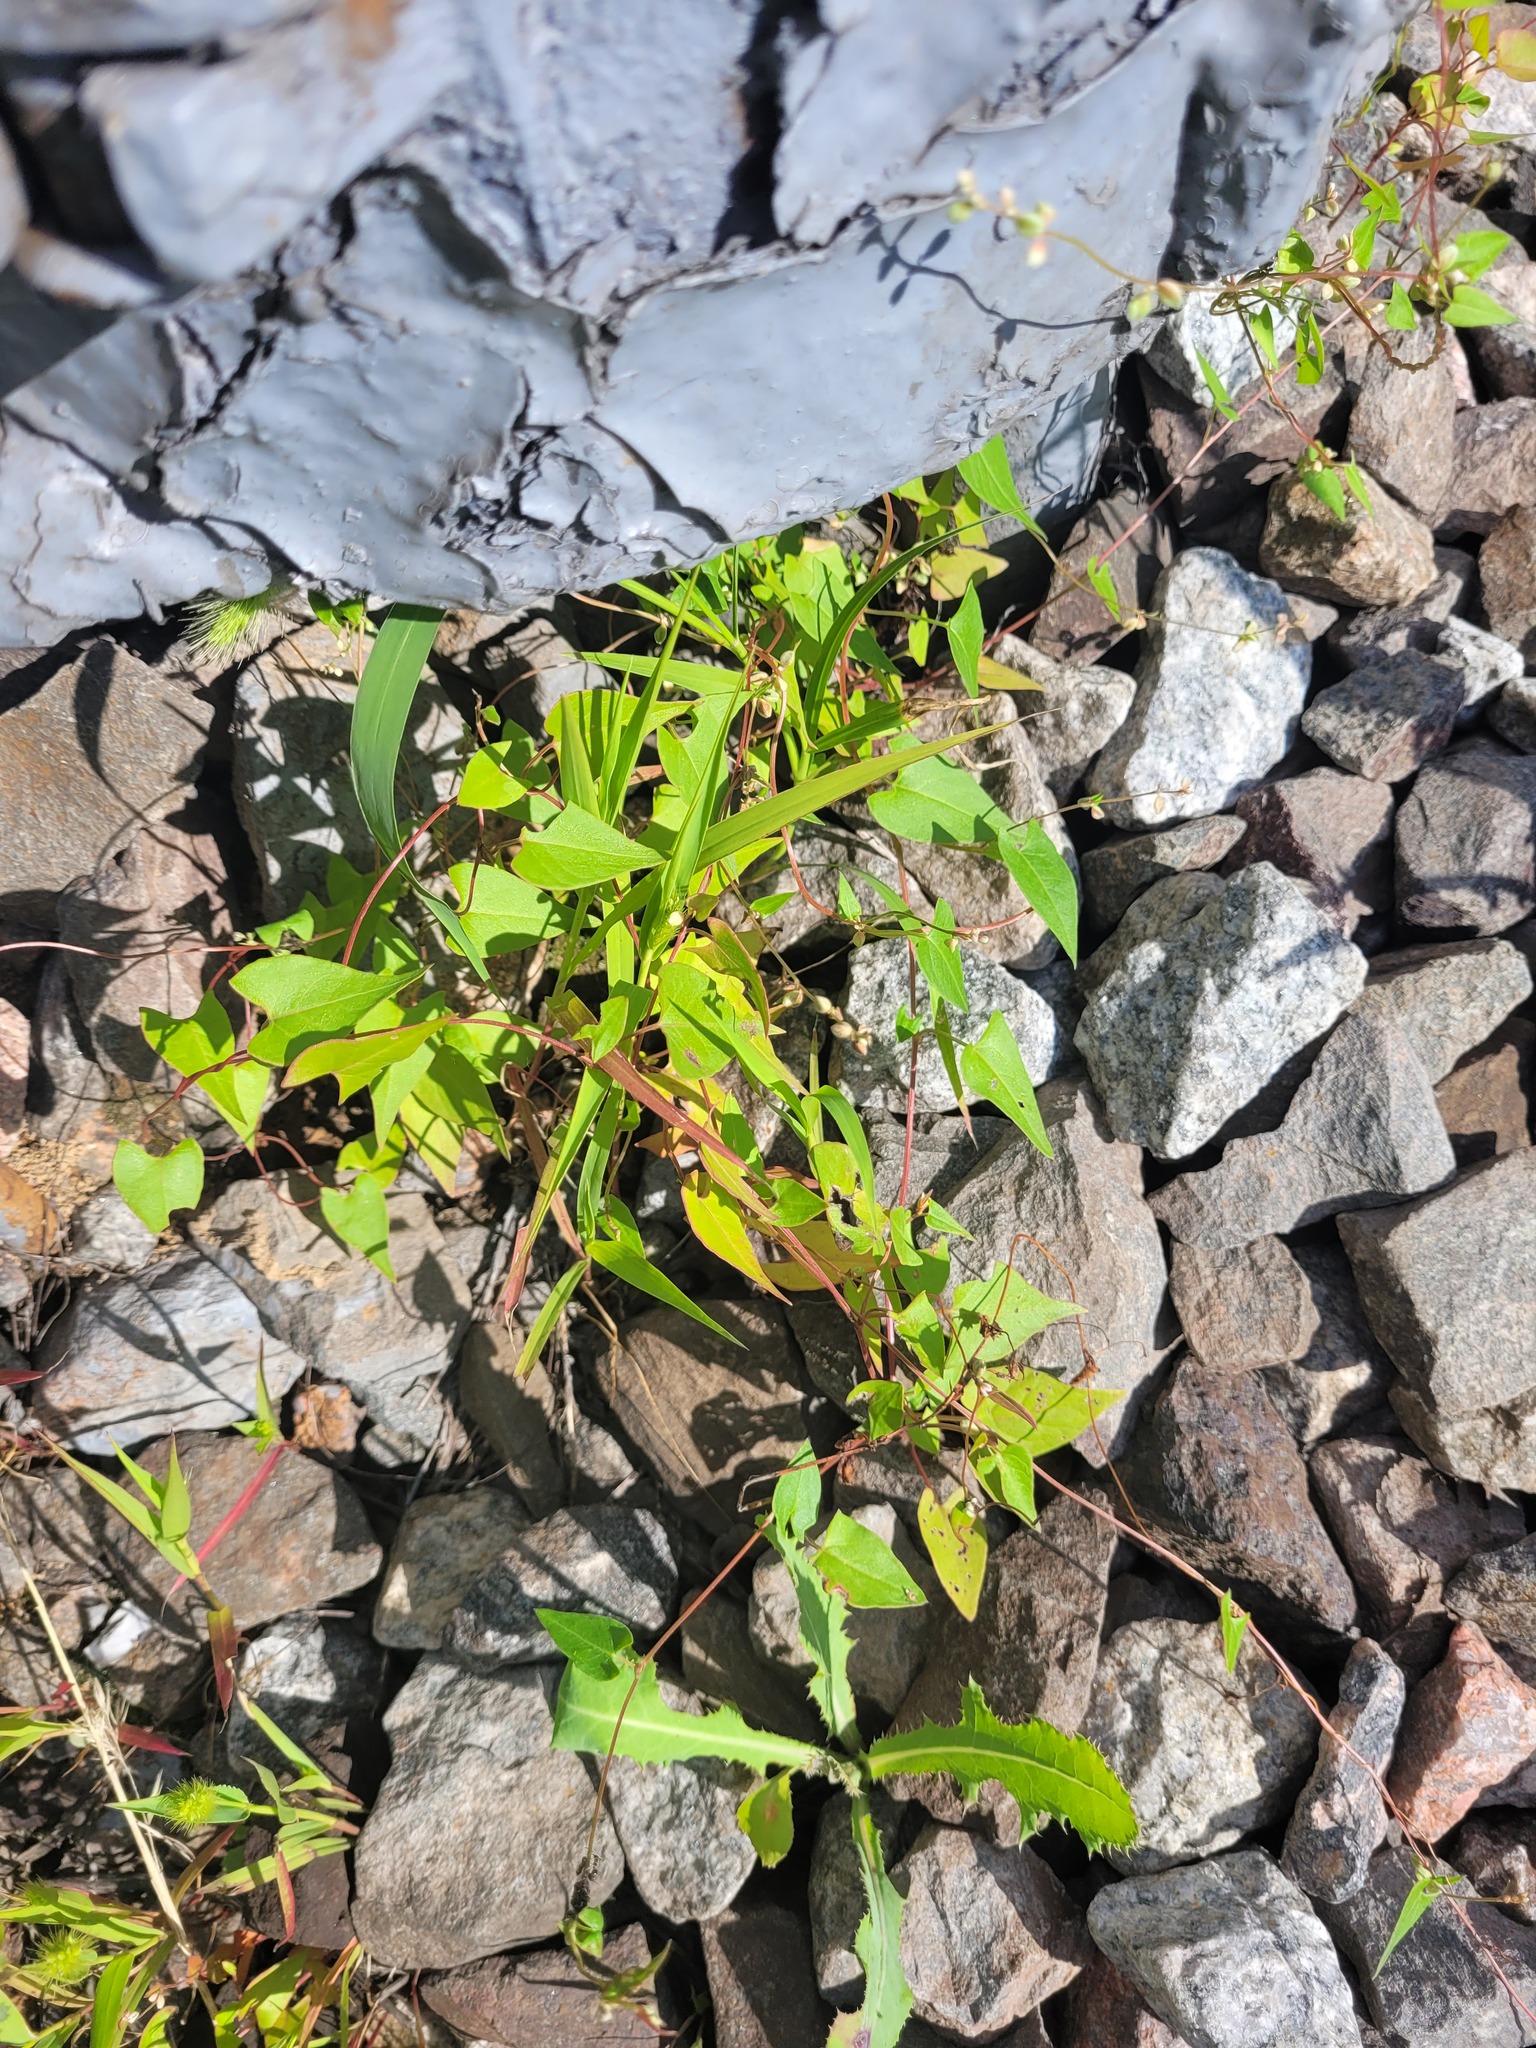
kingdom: Plantae
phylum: Tracheophyta
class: Magnoliopsida
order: Caryophyllales
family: Polygonaceae
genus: Fallopia
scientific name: Fallopia convolvulus
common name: Black bindweed
